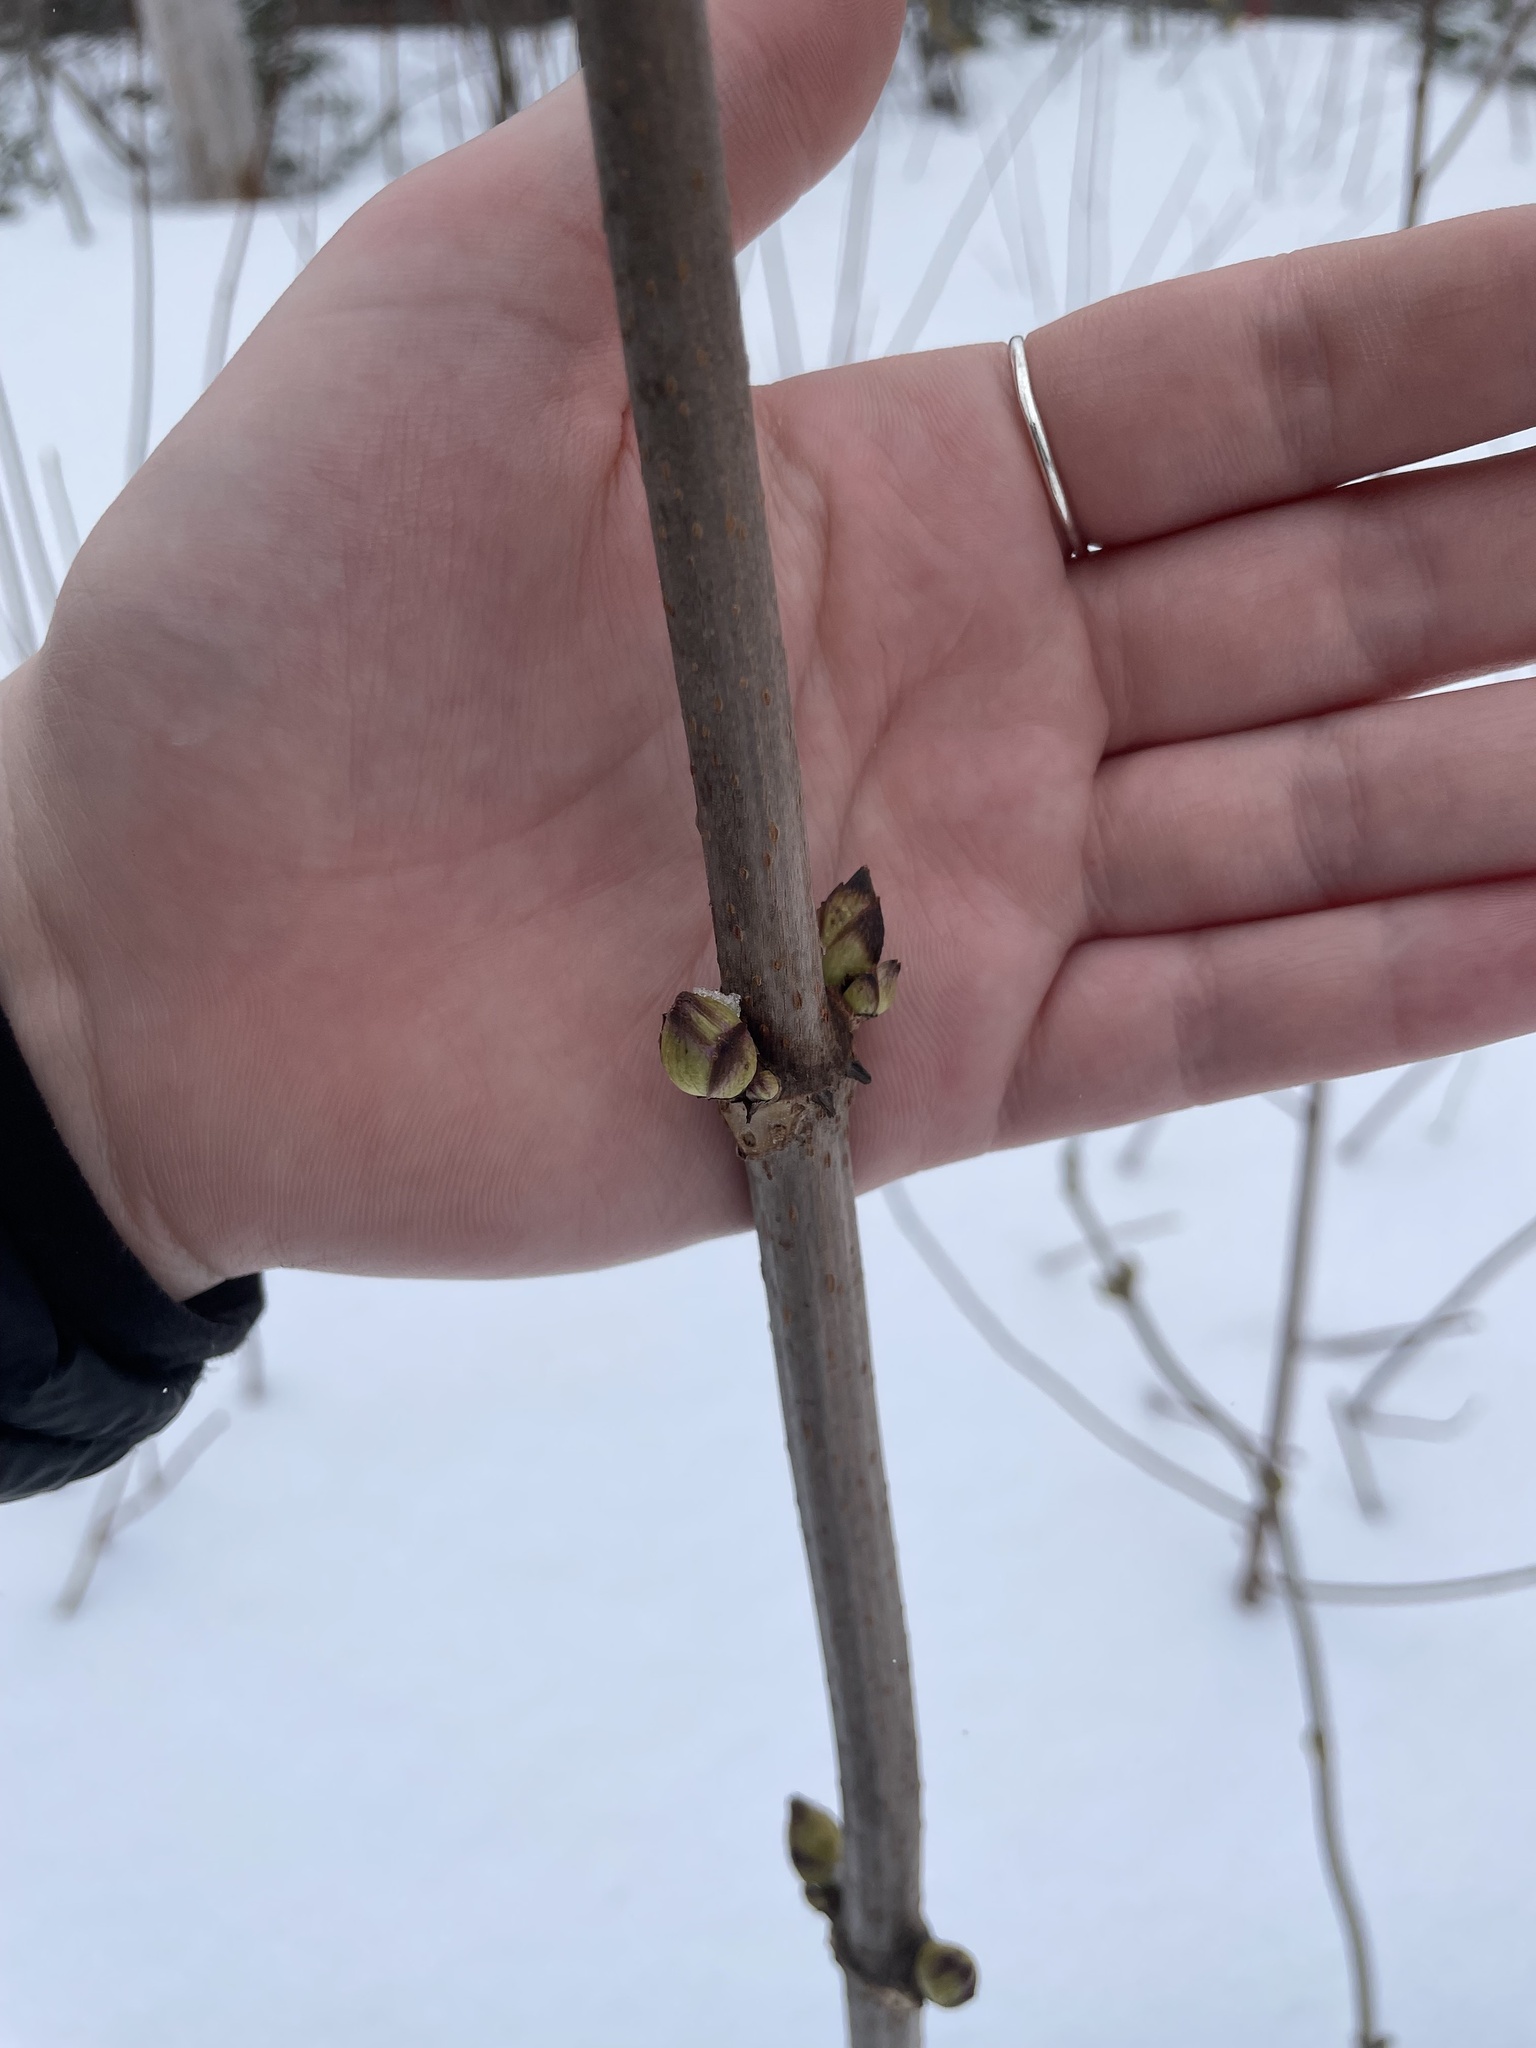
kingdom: Plantae
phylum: Tracheophyta
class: Magnoliopsida
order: Dipsacales
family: Viburnaceae
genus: Sambucus
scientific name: Sambucus racemosa
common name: Red-berried elder
